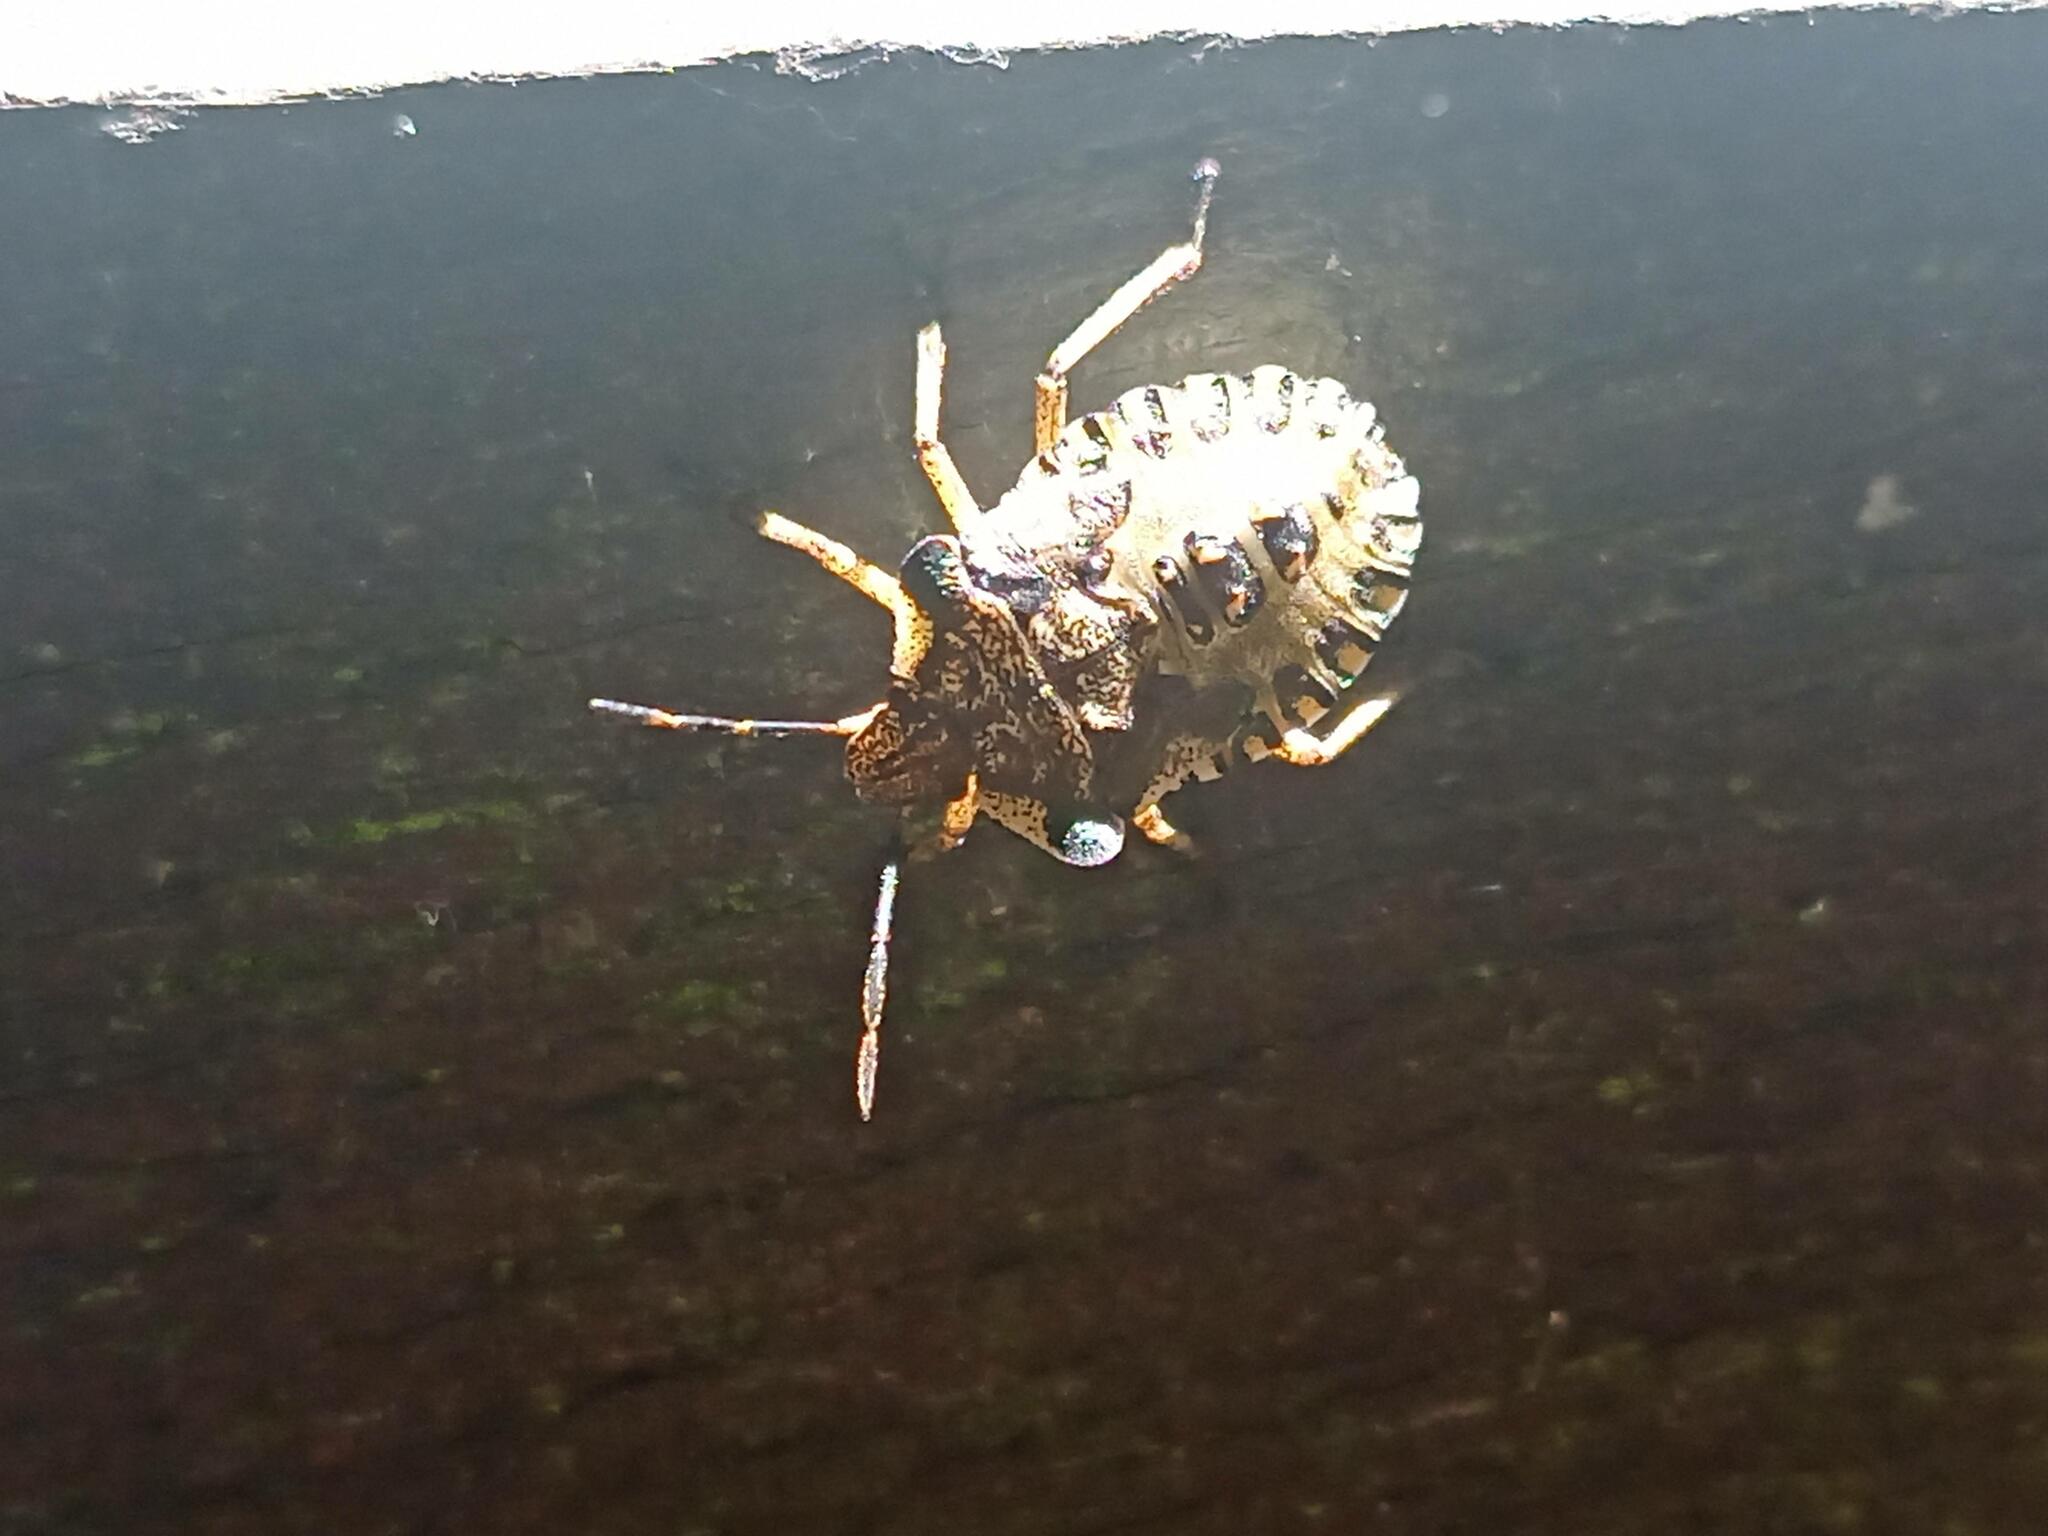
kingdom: Animalia
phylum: Arthropoda
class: Insecta
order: Hemiptera
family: Pentatomidae
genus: Pentatoma
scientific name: Pentatoma rufipes
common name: Forest bug
